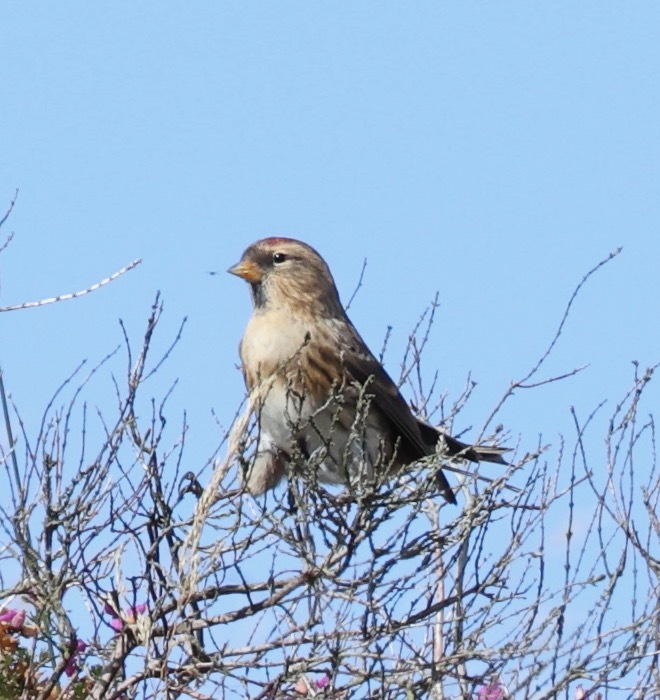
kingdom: Animalia
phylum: Chordata
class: Aves
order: Passeriformes
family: Fringillidae
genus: Acanthis
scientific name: Acanthis flammea
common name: Common redpoll
